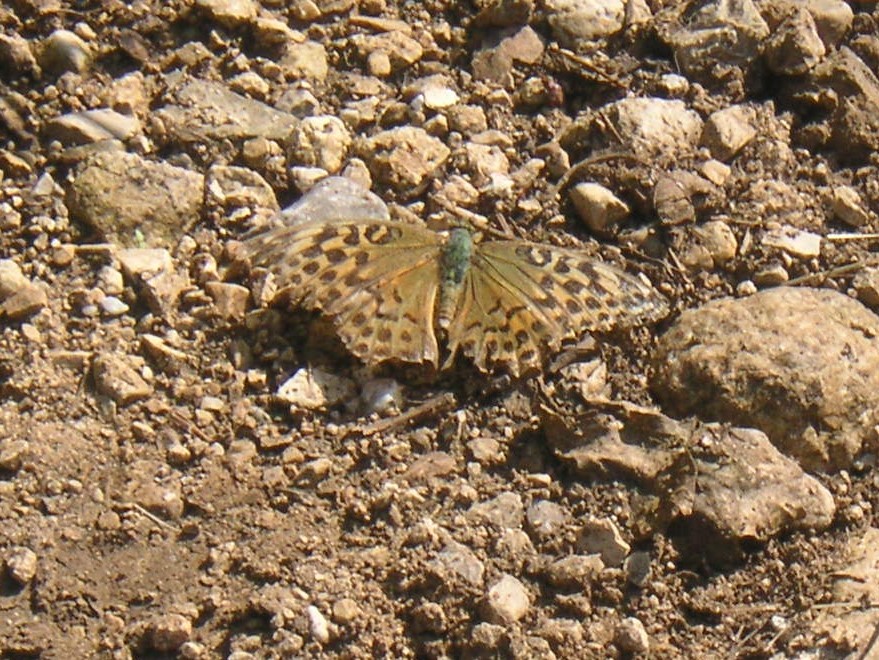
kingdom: Animalia
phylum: Arthropoda
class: Insecta
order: Lepidoptera
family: Nymphalidae
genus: Argynnis
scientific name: Argynnis paphia
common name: Silver-washed fritillary
